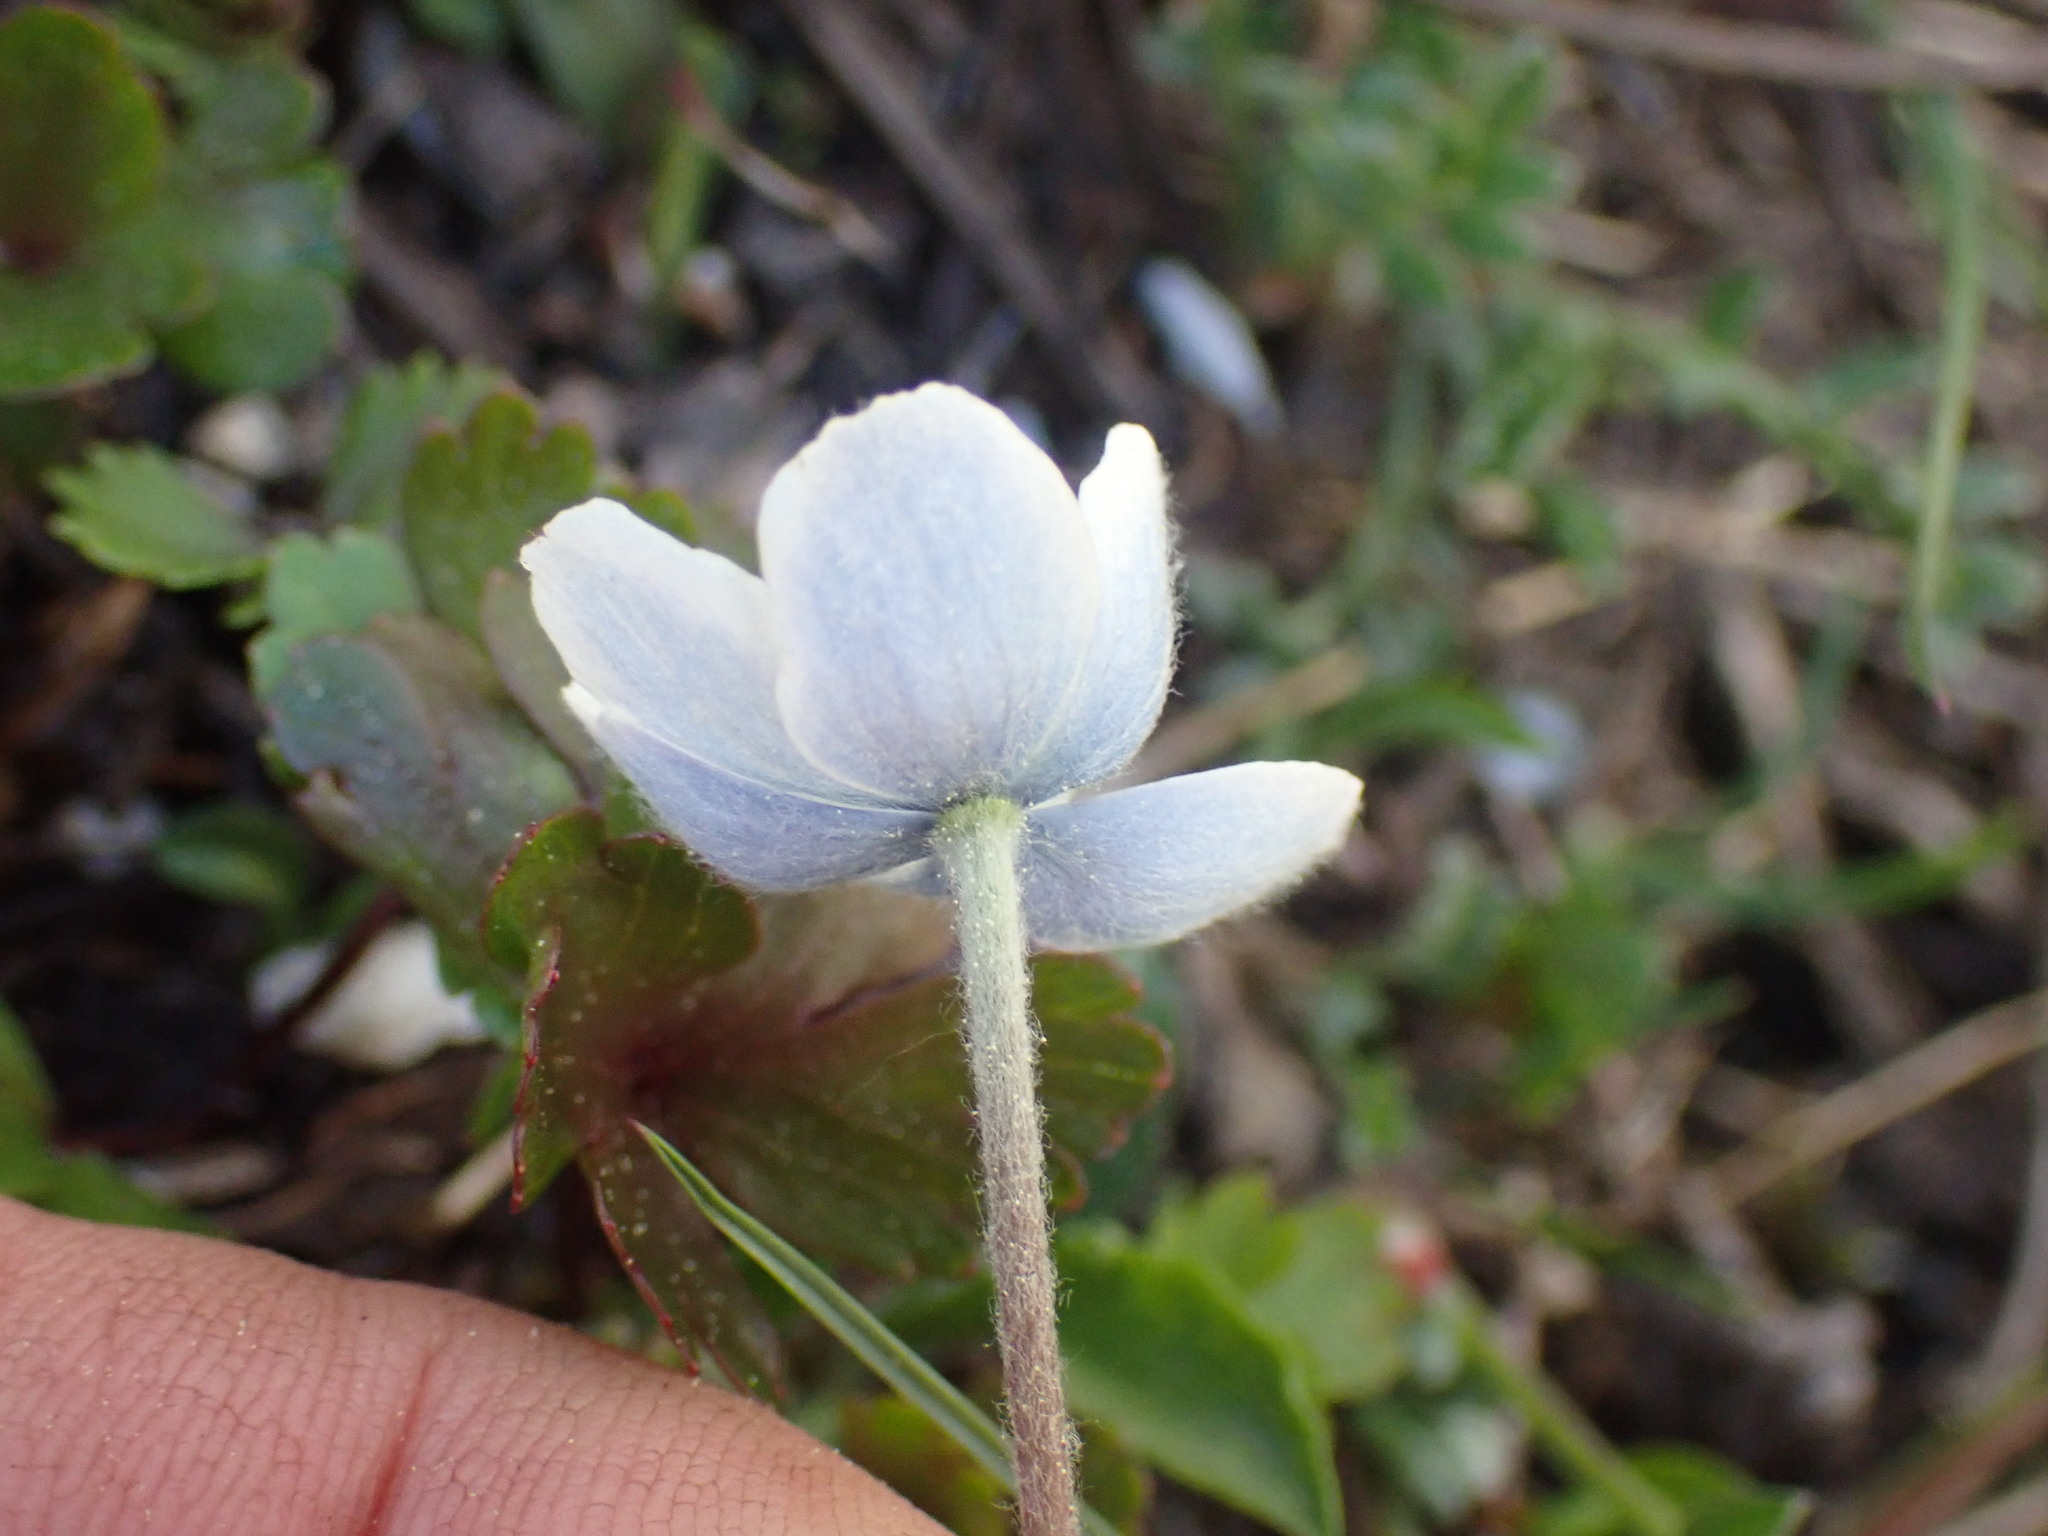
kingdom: Plantae
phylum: Tracheophyta
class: Magnoliopsida
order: Ranunculales
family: Ranunculaceae
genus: Anemone
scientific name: Anemone parviflora
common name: Northern anemone
